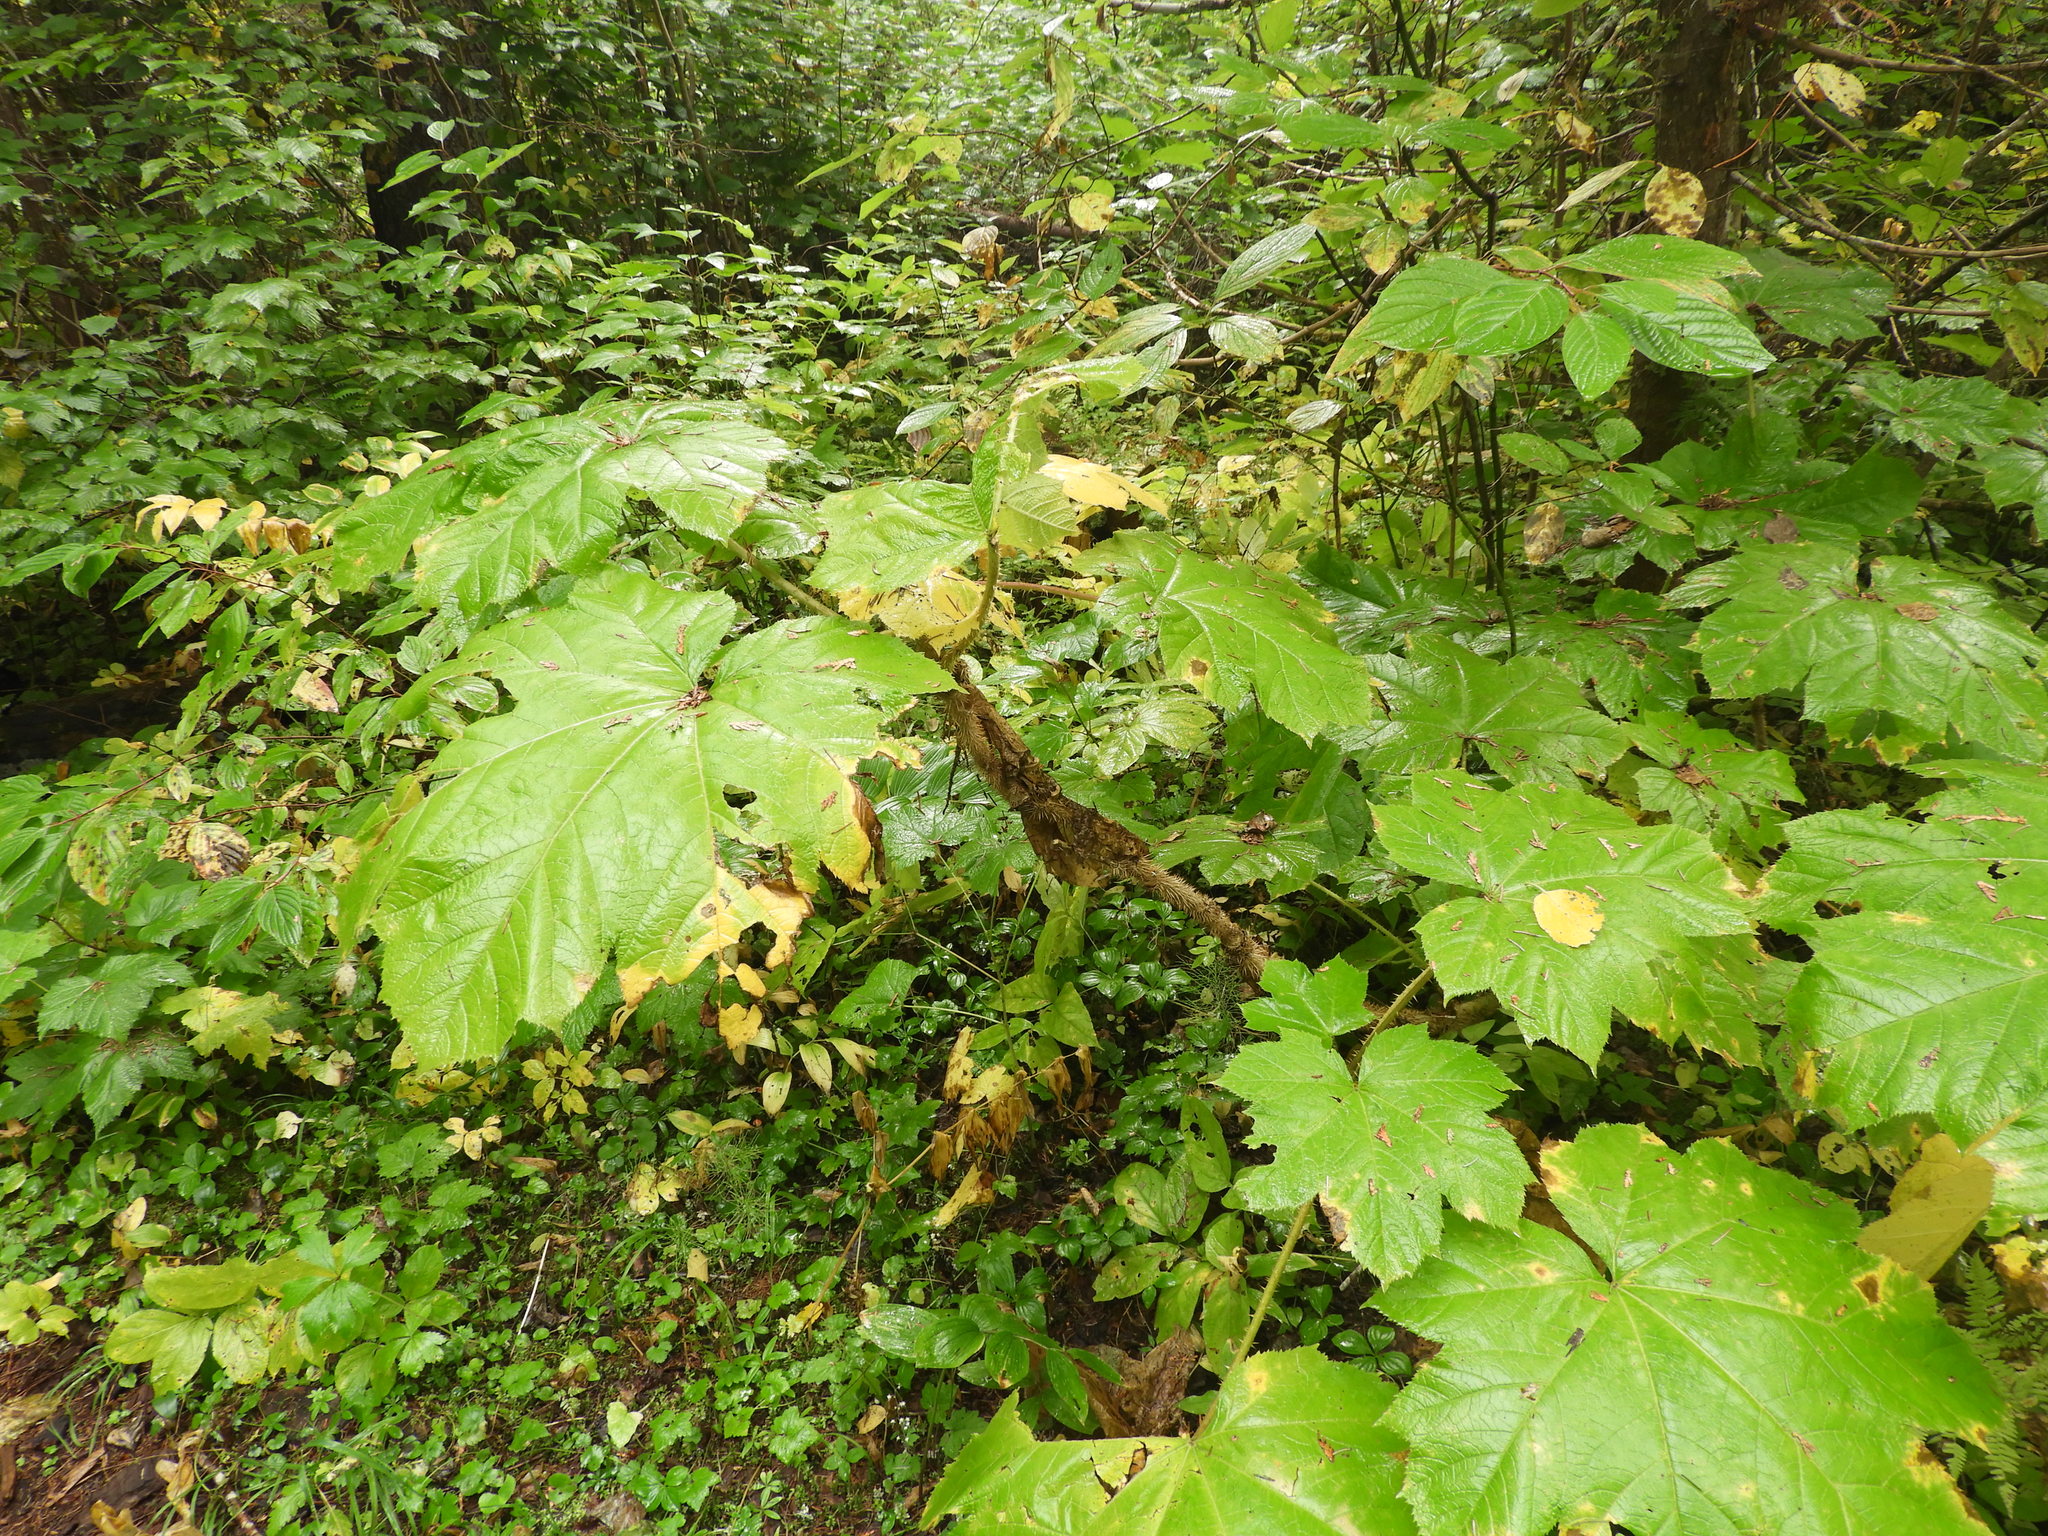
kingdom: Plantae
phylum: Tracheophyta
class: Magnoliopsida
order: Apiales
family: Araliaceae
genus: Oplopanax
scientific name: Oplopanax horridus
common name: Devil's walking-stick
